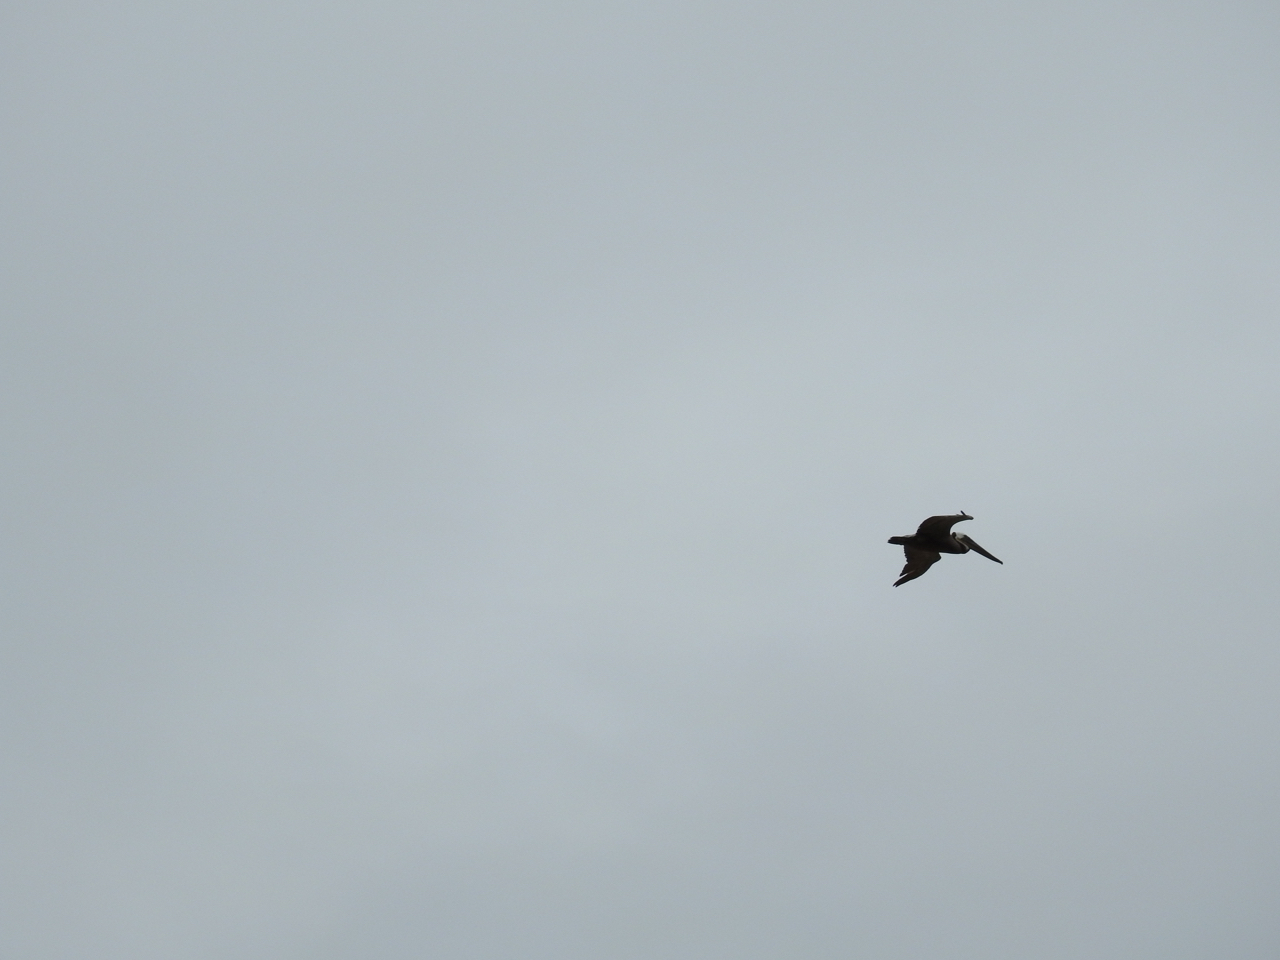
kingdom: Animalia
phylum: Chordata
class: Aves
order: Pelecaniformes
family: Pelecanidae
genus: Pelecanus
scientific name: Pelecanus occidentalis
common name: Brown pelican
